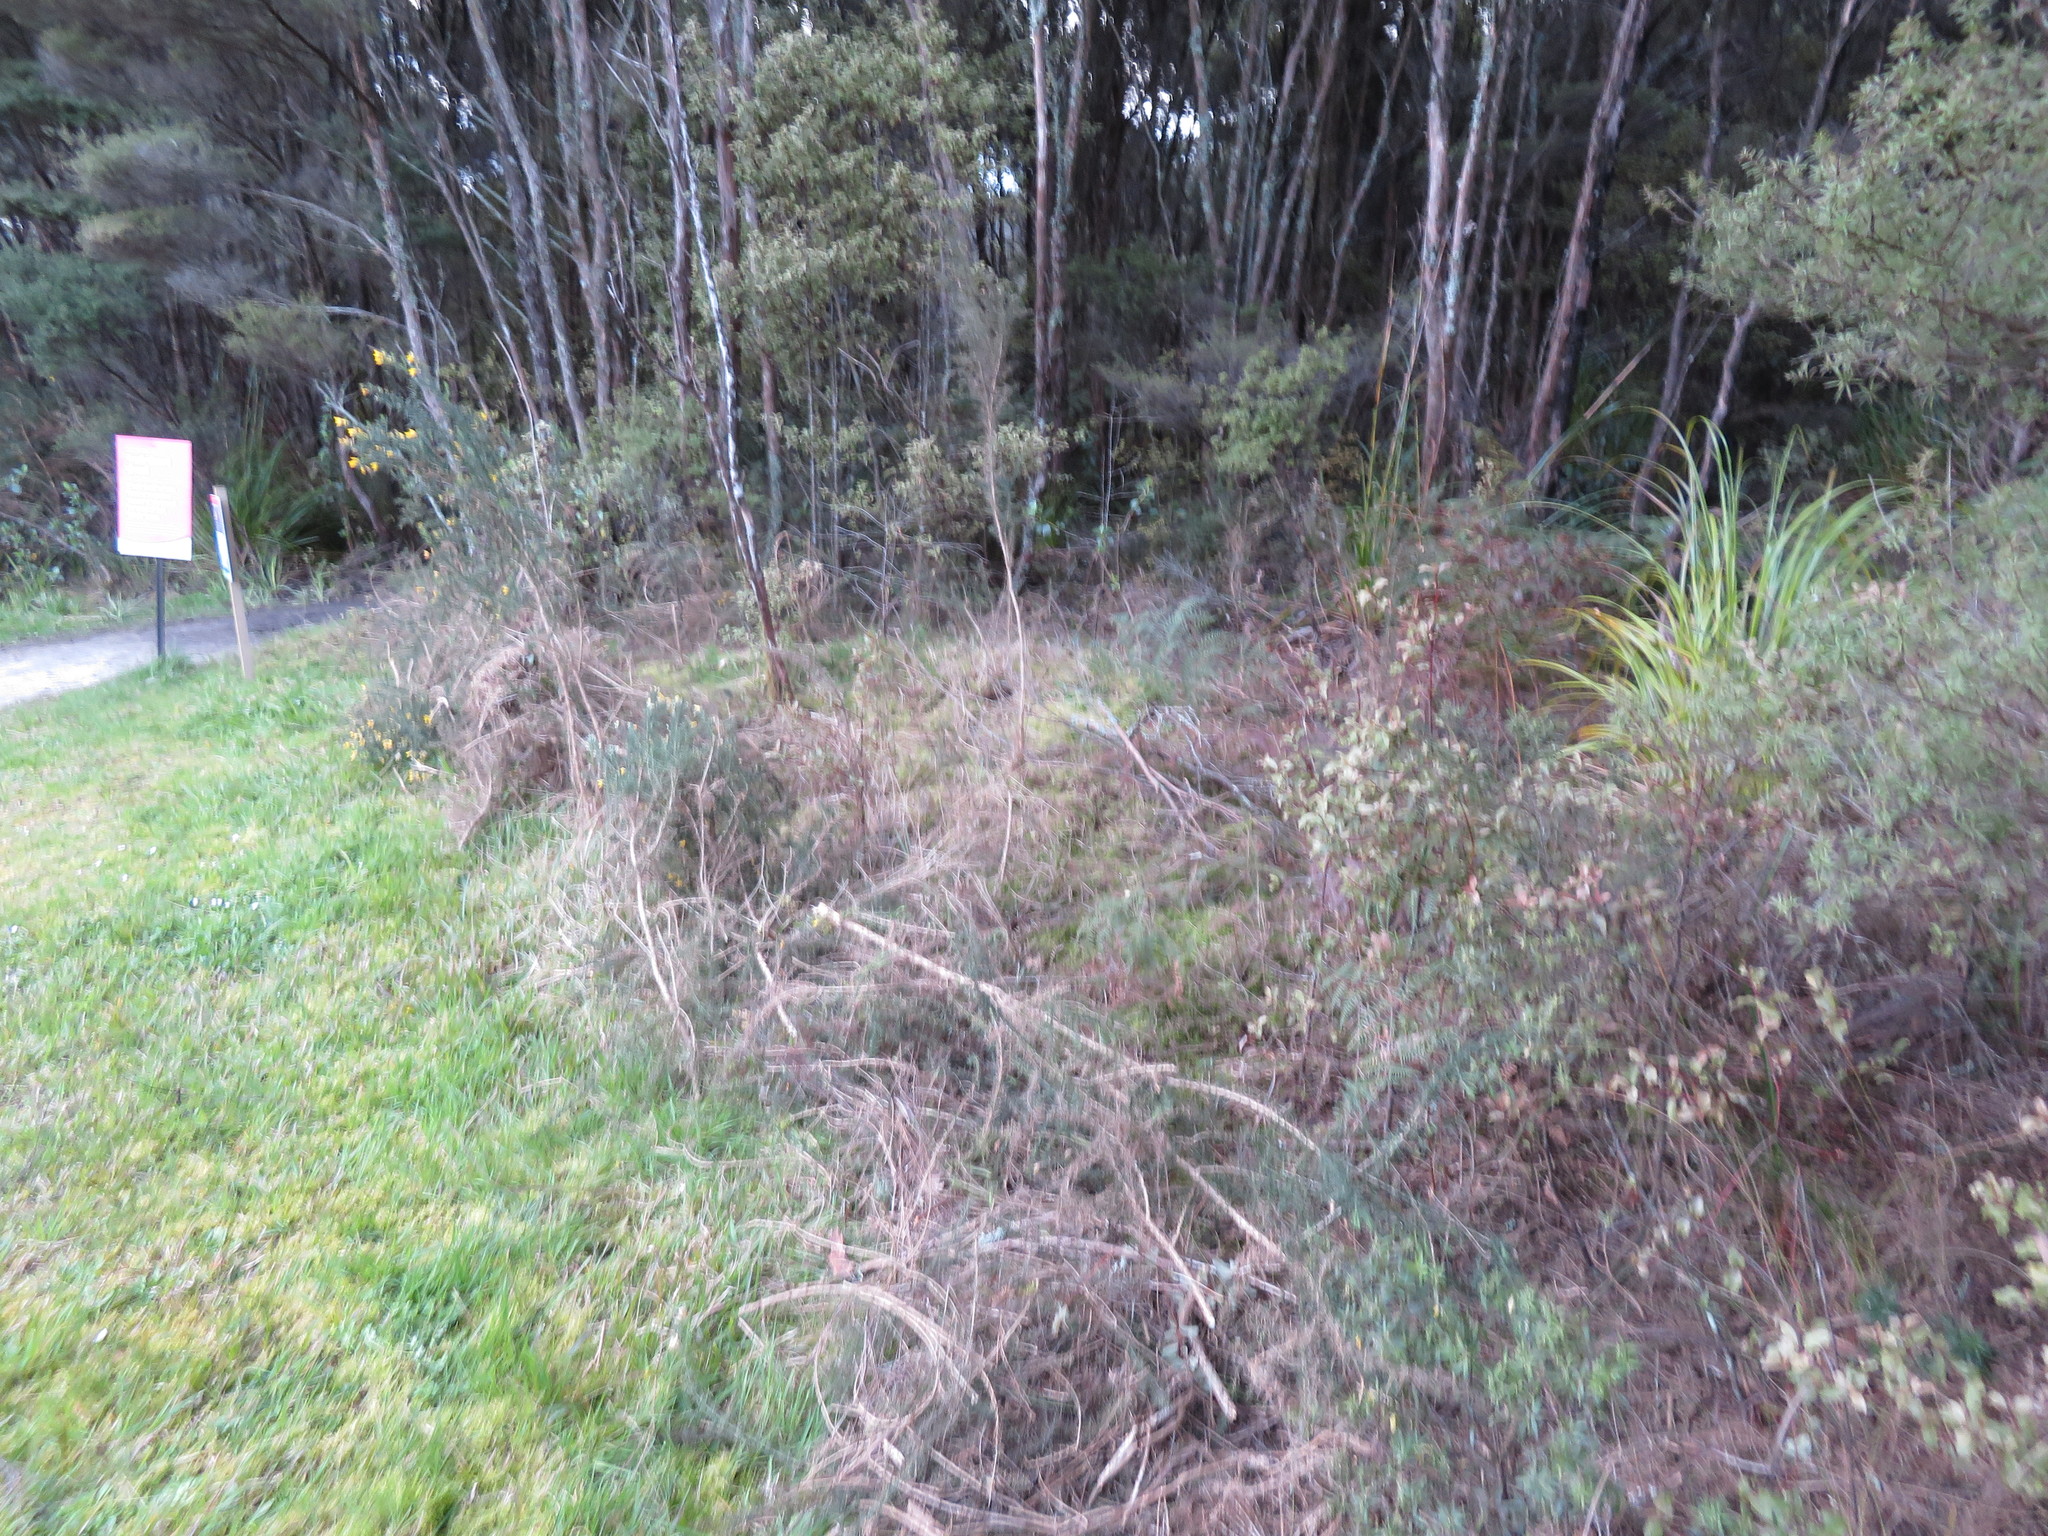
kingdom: Plantae
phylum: Tracheophyta
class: Magnoliopsida
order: Fabales
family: Fabaceae
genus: Ulex
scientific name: Ulex europaeus
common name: Common gorse
